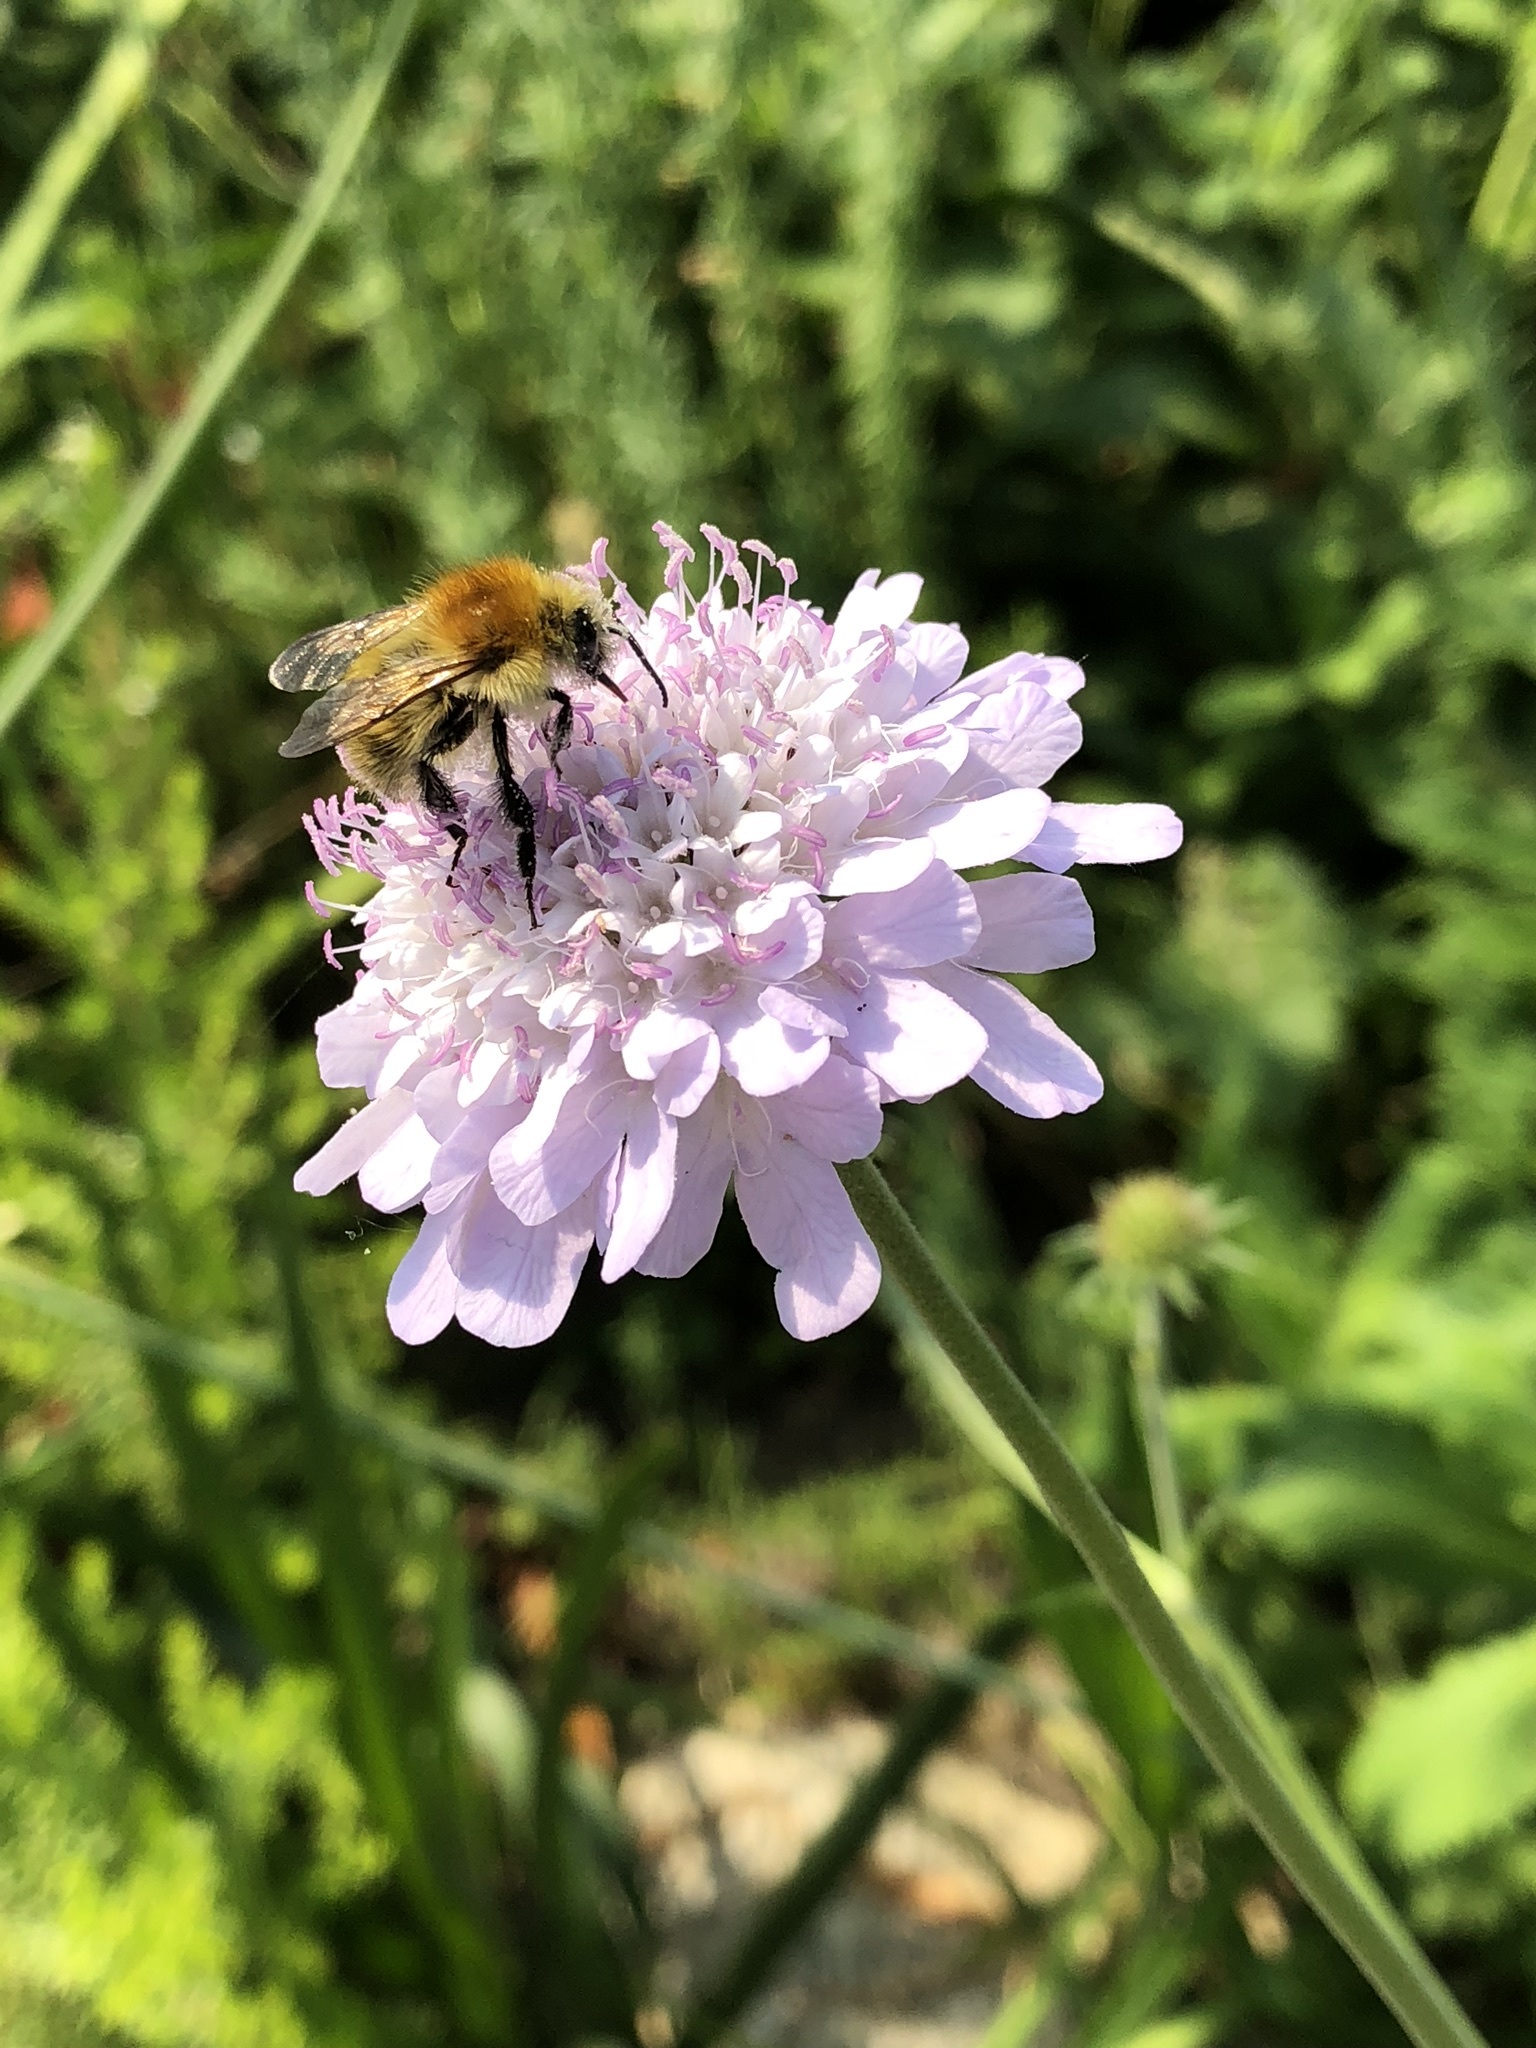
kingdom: Plantae
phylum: Tracheophyta
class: Magnoliopsida
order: Dipsacales
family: Caprifoliaceae
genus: Knautia
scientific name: Knautia arvensis
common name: Field scabiosa
